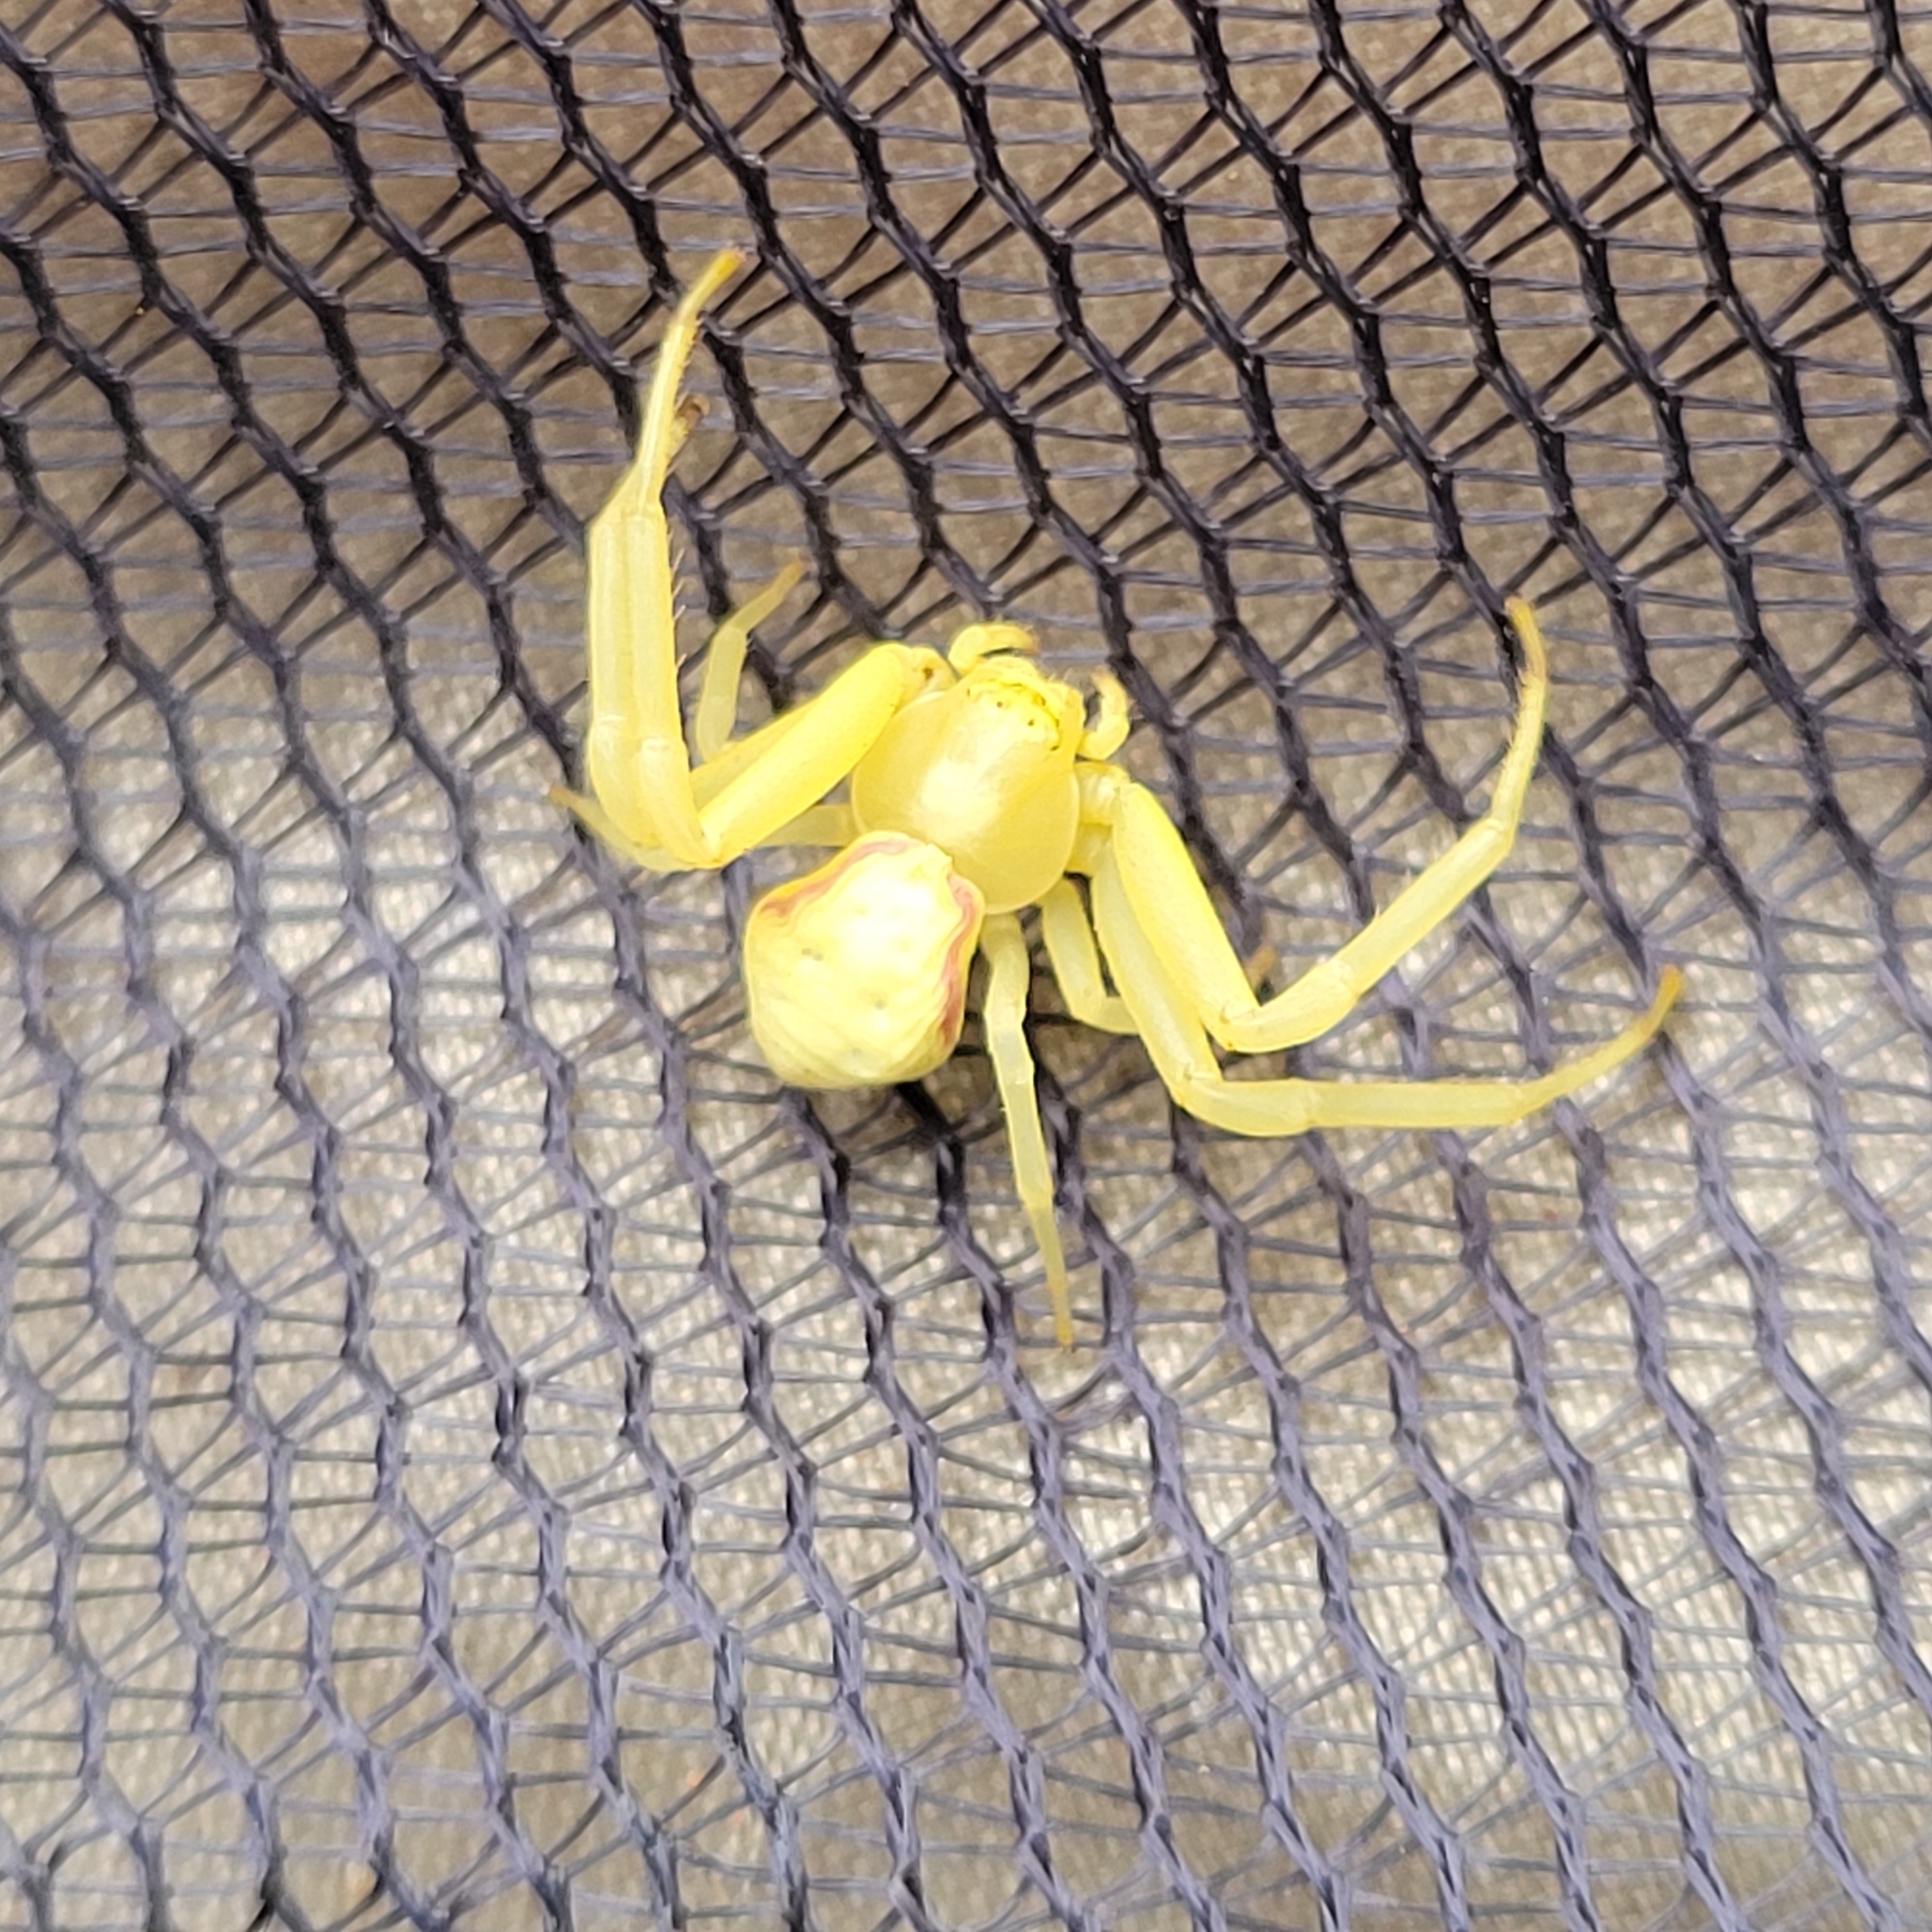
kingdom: Animalia
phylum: Arthropoda
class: Arachnida
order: Araneae
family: Thomisidae
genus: Misumena
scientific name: Misumena vatia
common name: Goldenrod crab spider
